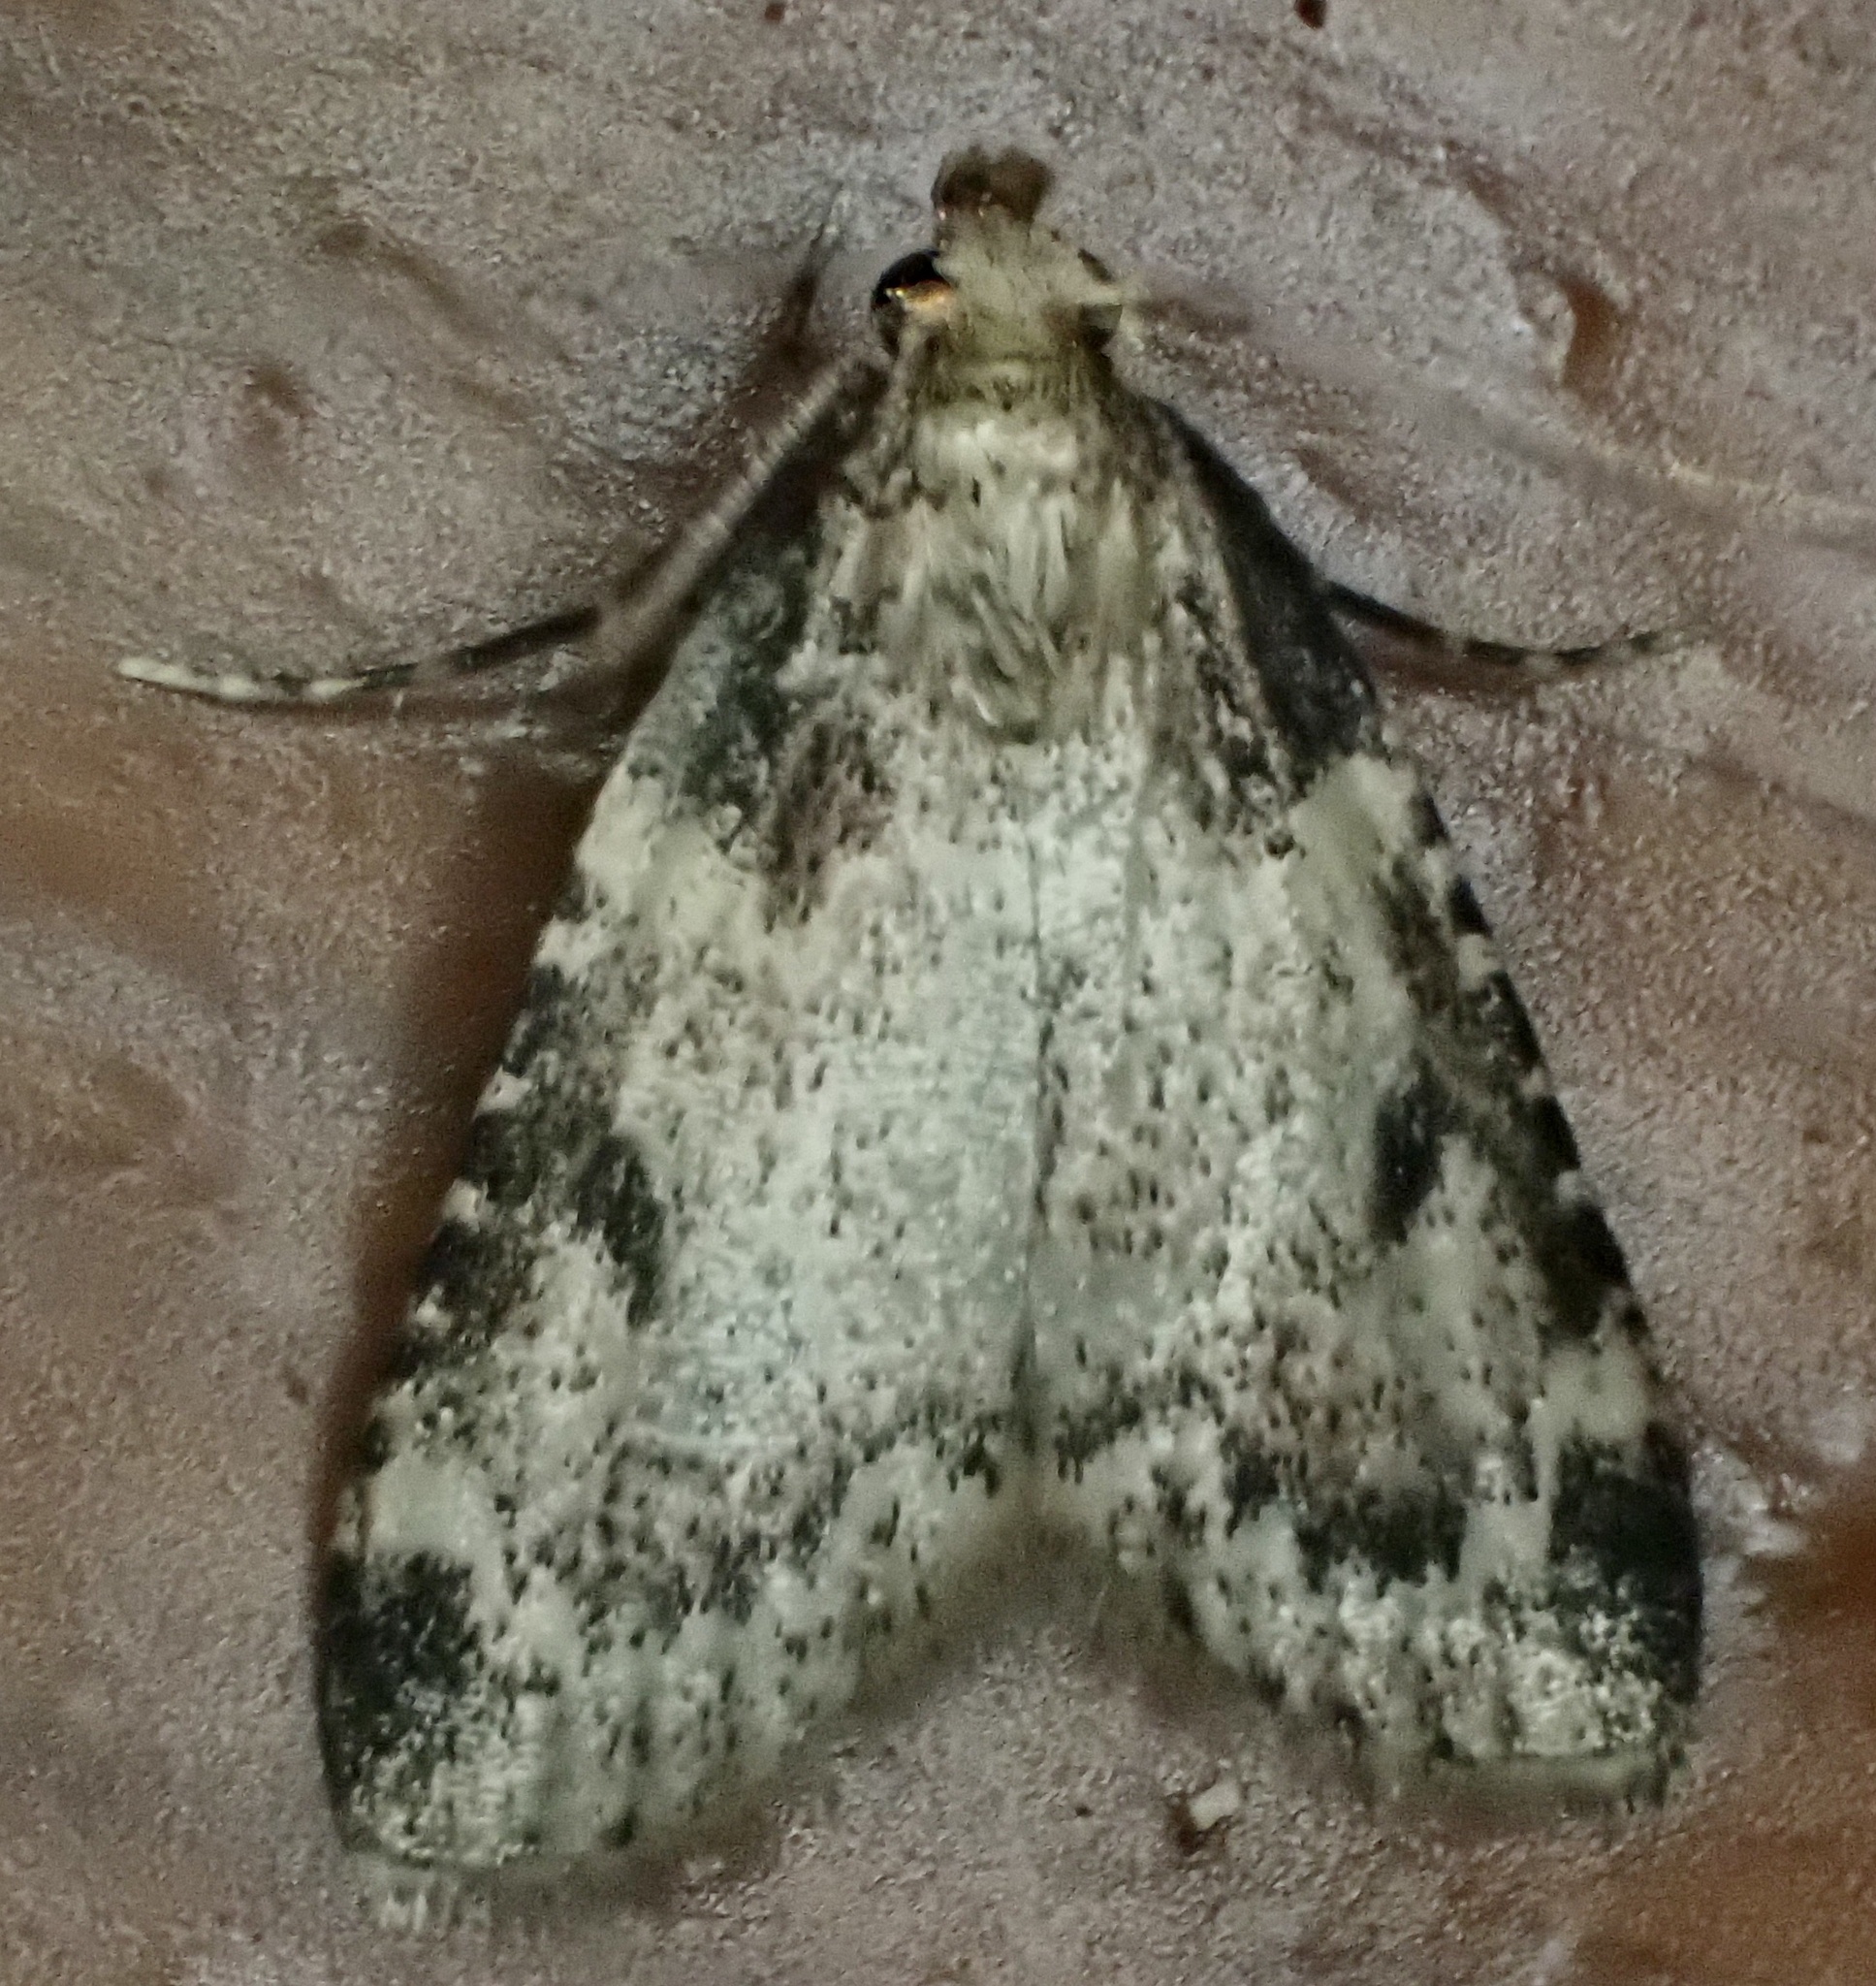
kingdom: Animalia
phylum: Arthropoda
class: Insecta
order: Lepidoptera
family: Pyralidae
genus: Aglossa
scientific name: Aglossa costiferalis
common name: Calico pyralid moth
